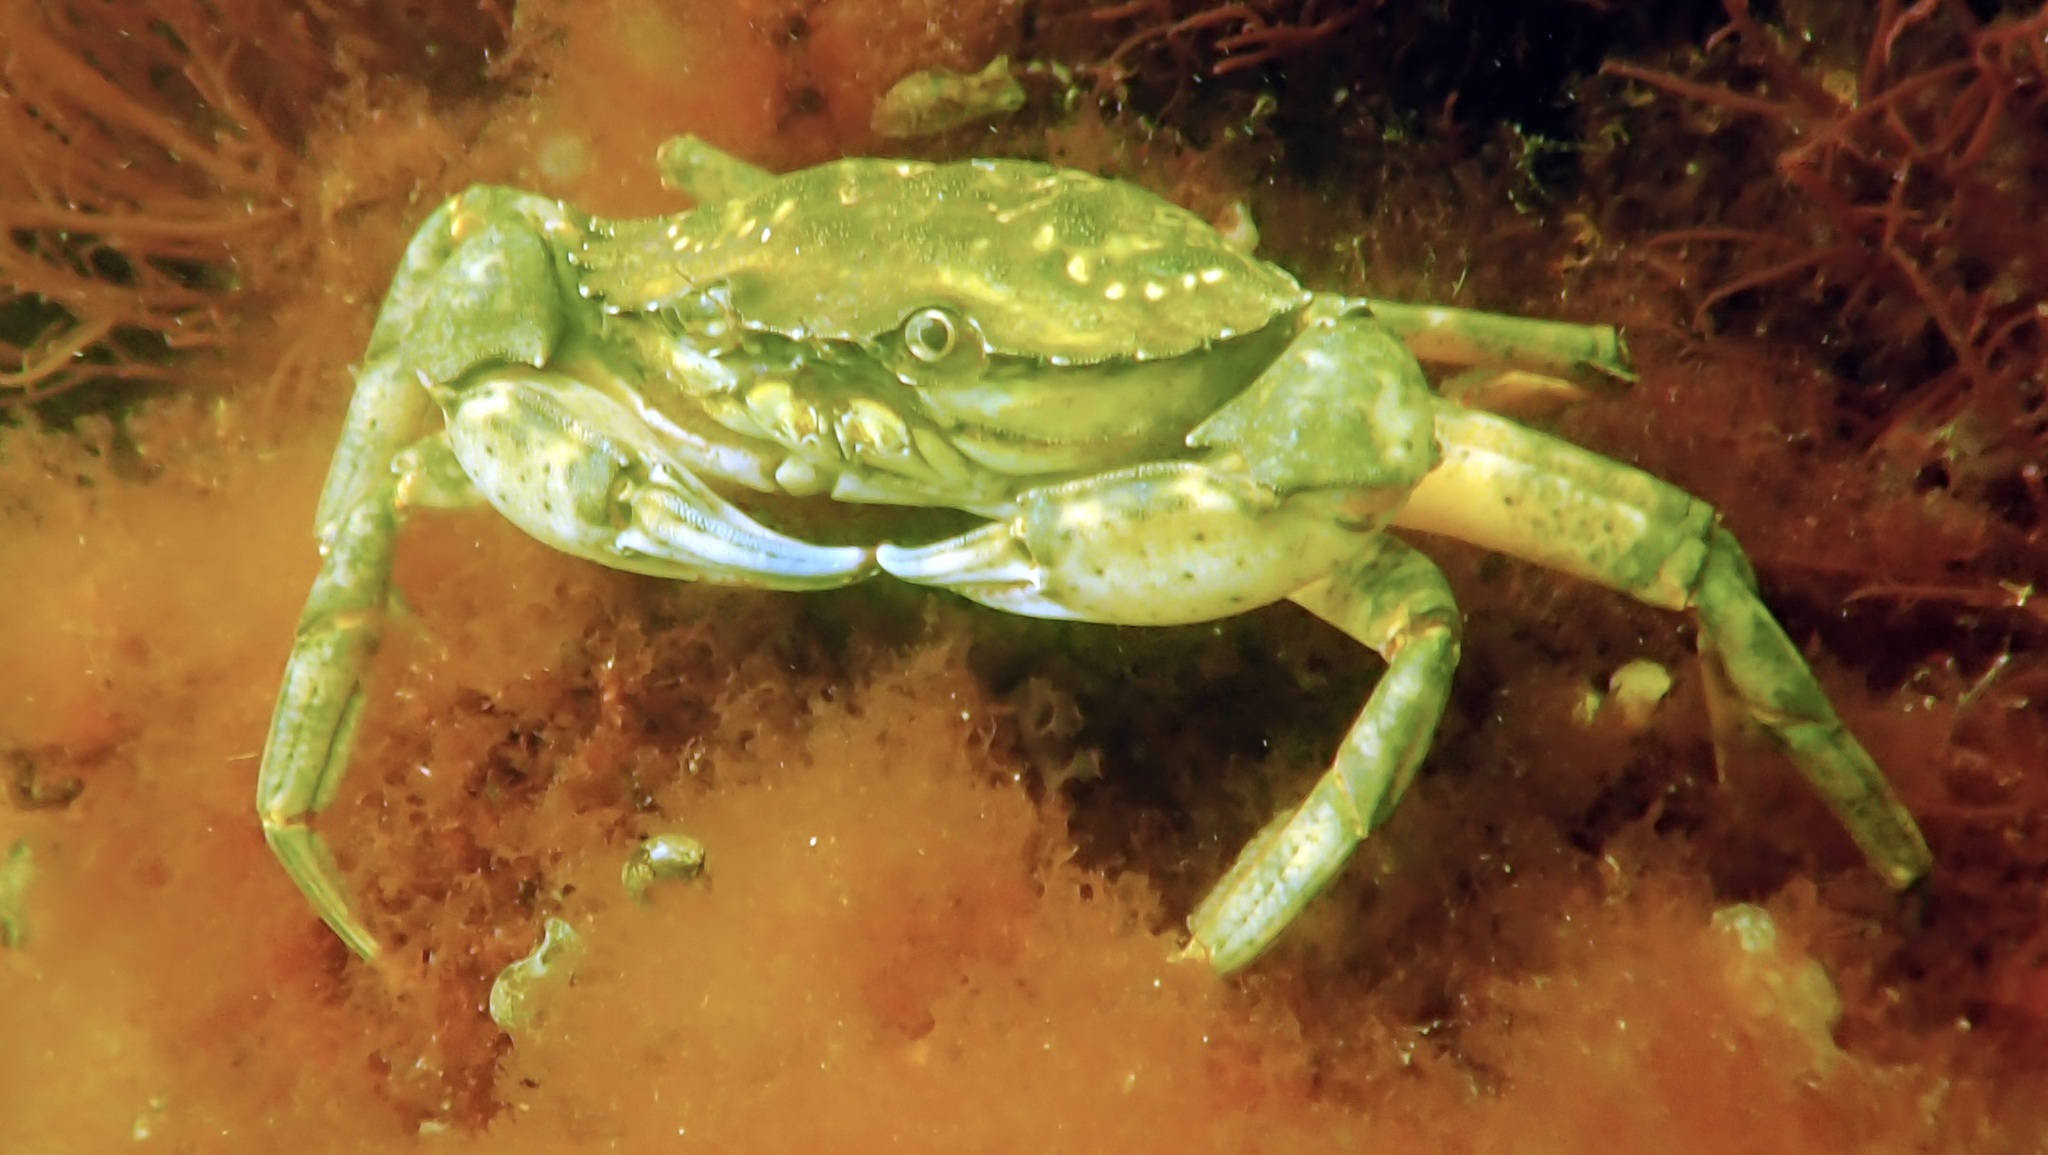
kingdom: Animalia
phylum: Arthropoda
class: Malacostraca
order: Decapoda
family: Carcinidae
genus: Carcinus
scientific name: Carcinus maenas
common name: European green crab
